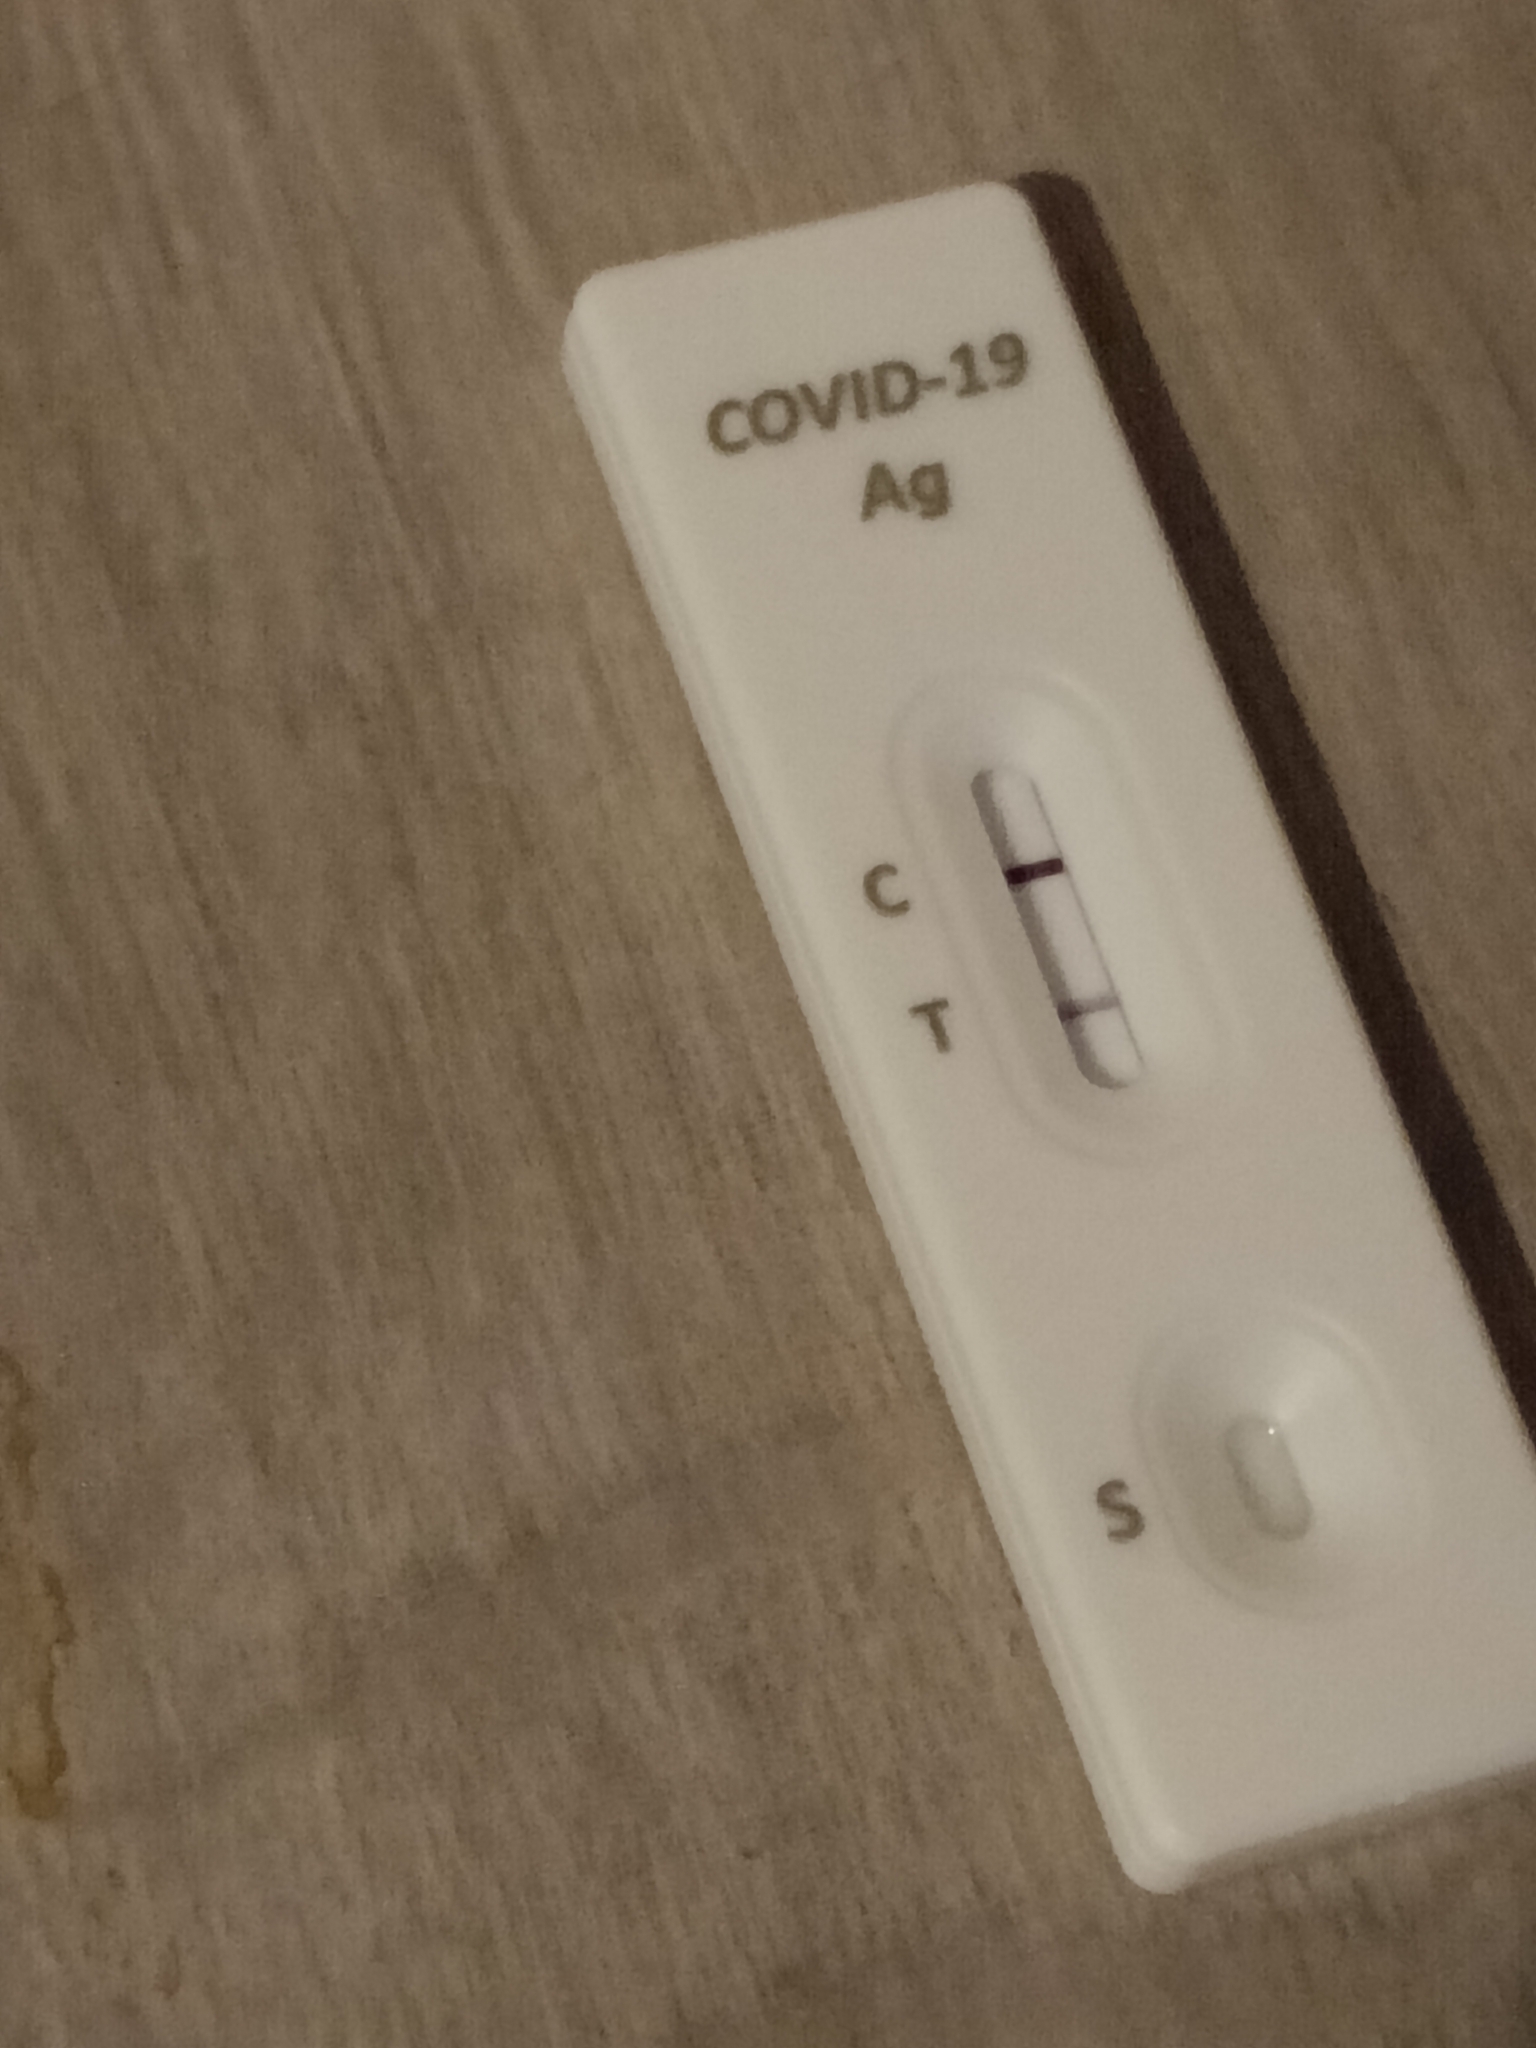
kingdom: Viruses
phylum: Pisuviricota
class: Pisoniviricetes
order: Nidovirales
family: Coronaviridae
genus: Betacoronavirus
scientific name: Betacoronavirus
